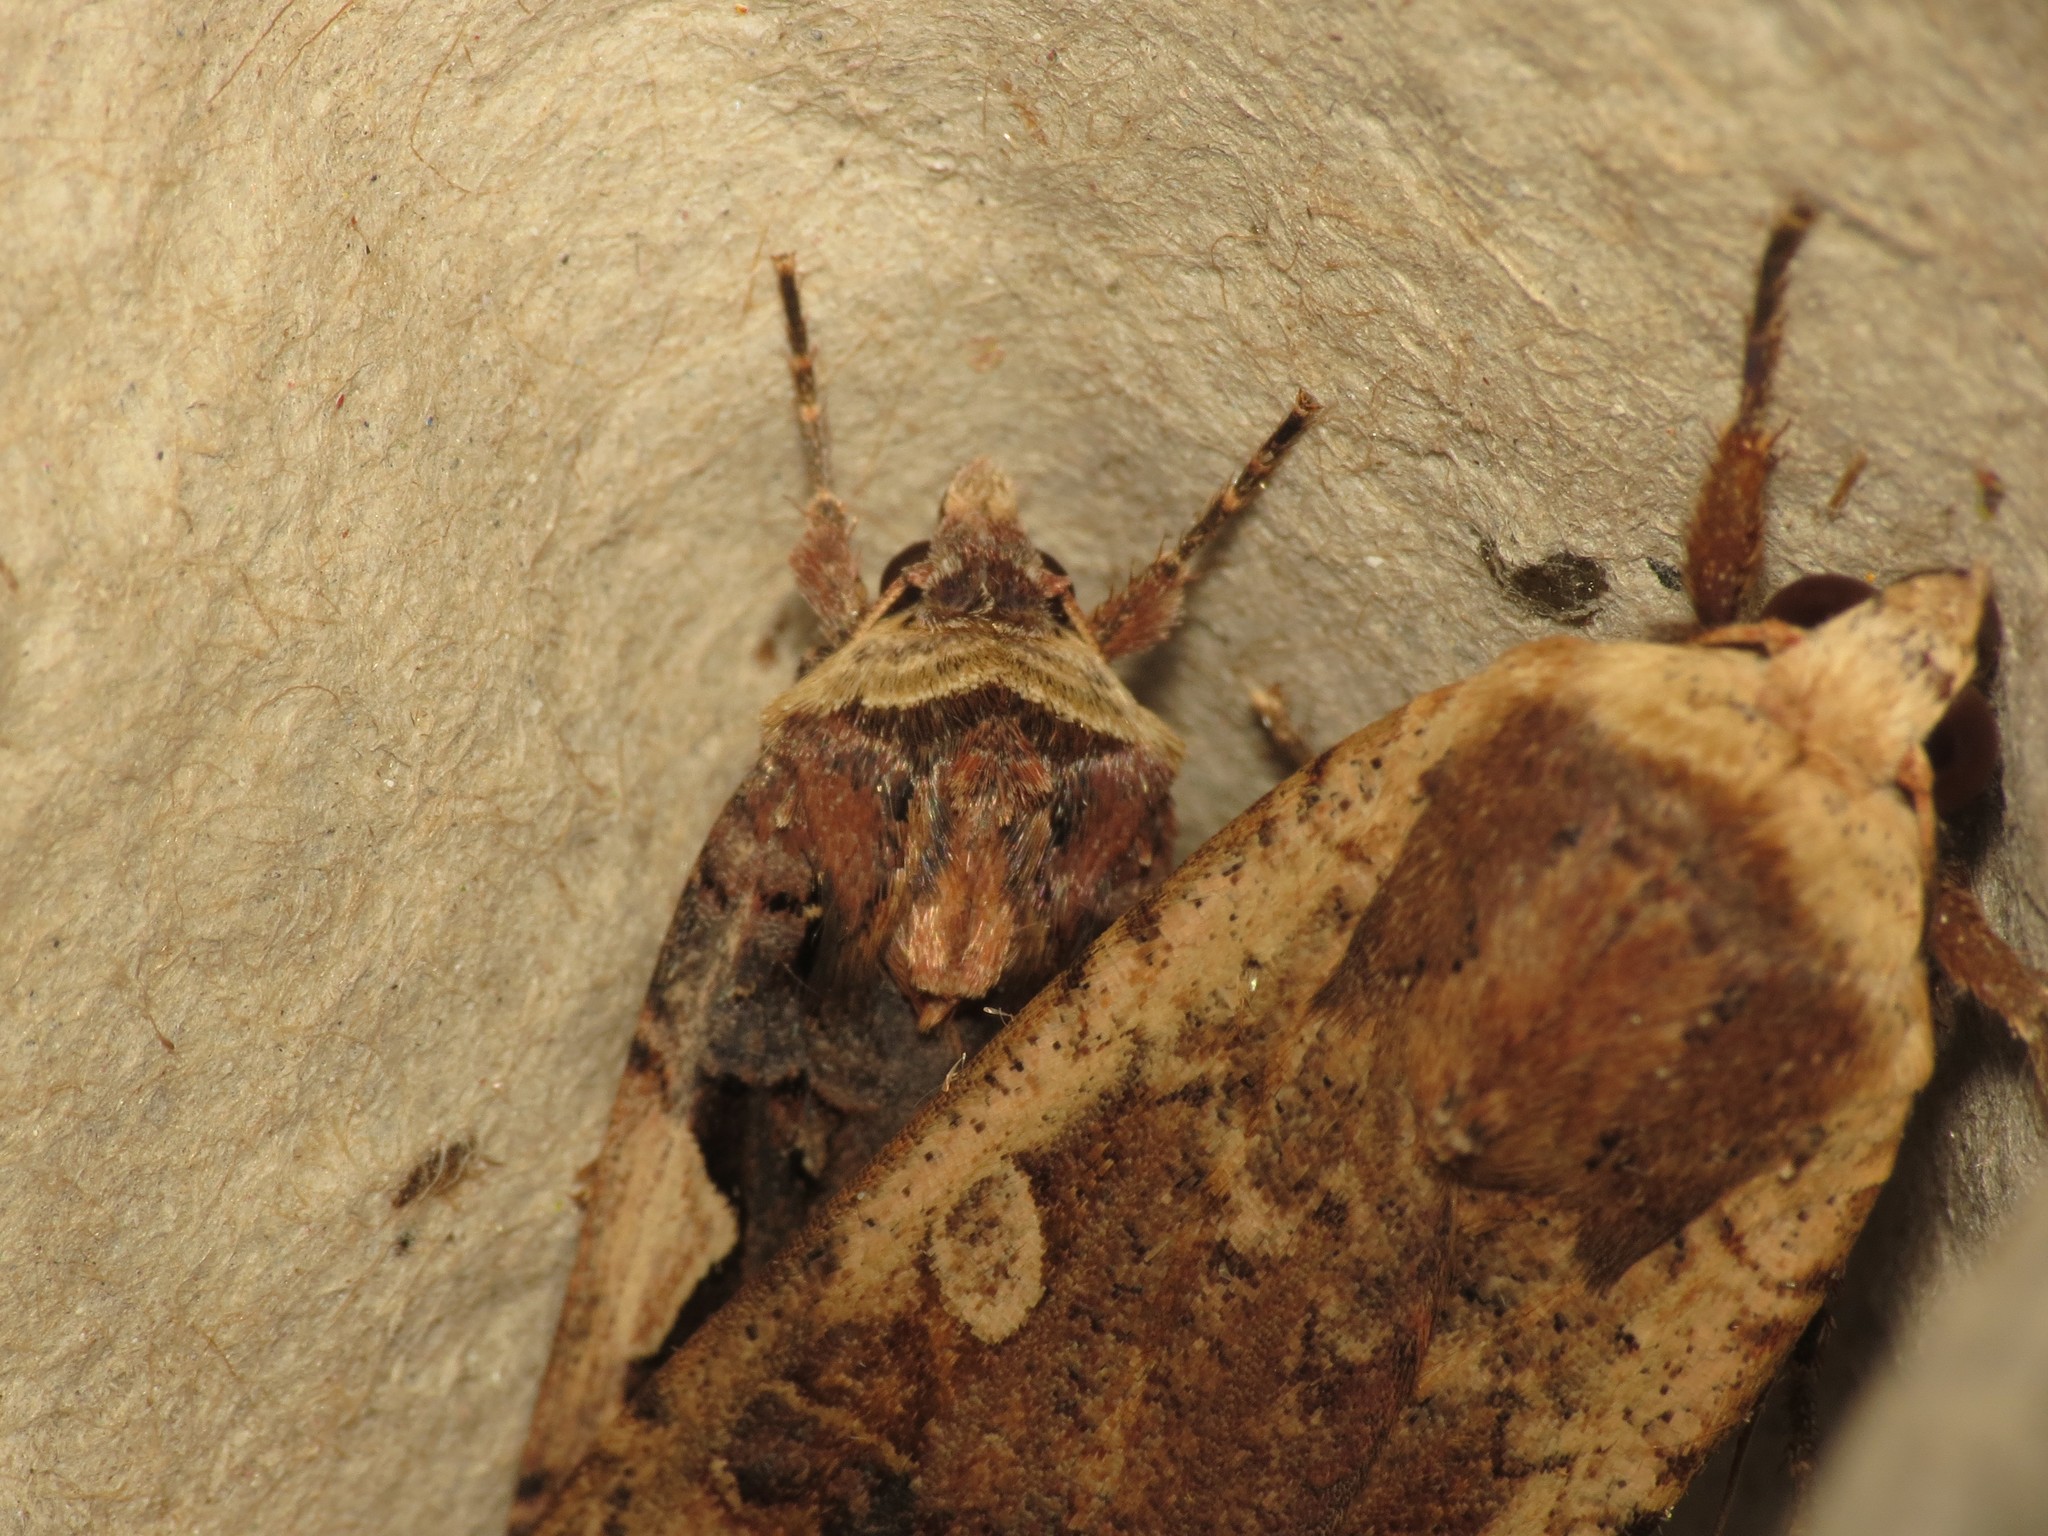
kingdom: Animalia
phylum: Arthropoda
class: Insecta
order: Lepidoptera
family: Noctuidae
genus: Xestia
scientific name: Xestia c-nigrum
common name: Setaceous hebrew character
